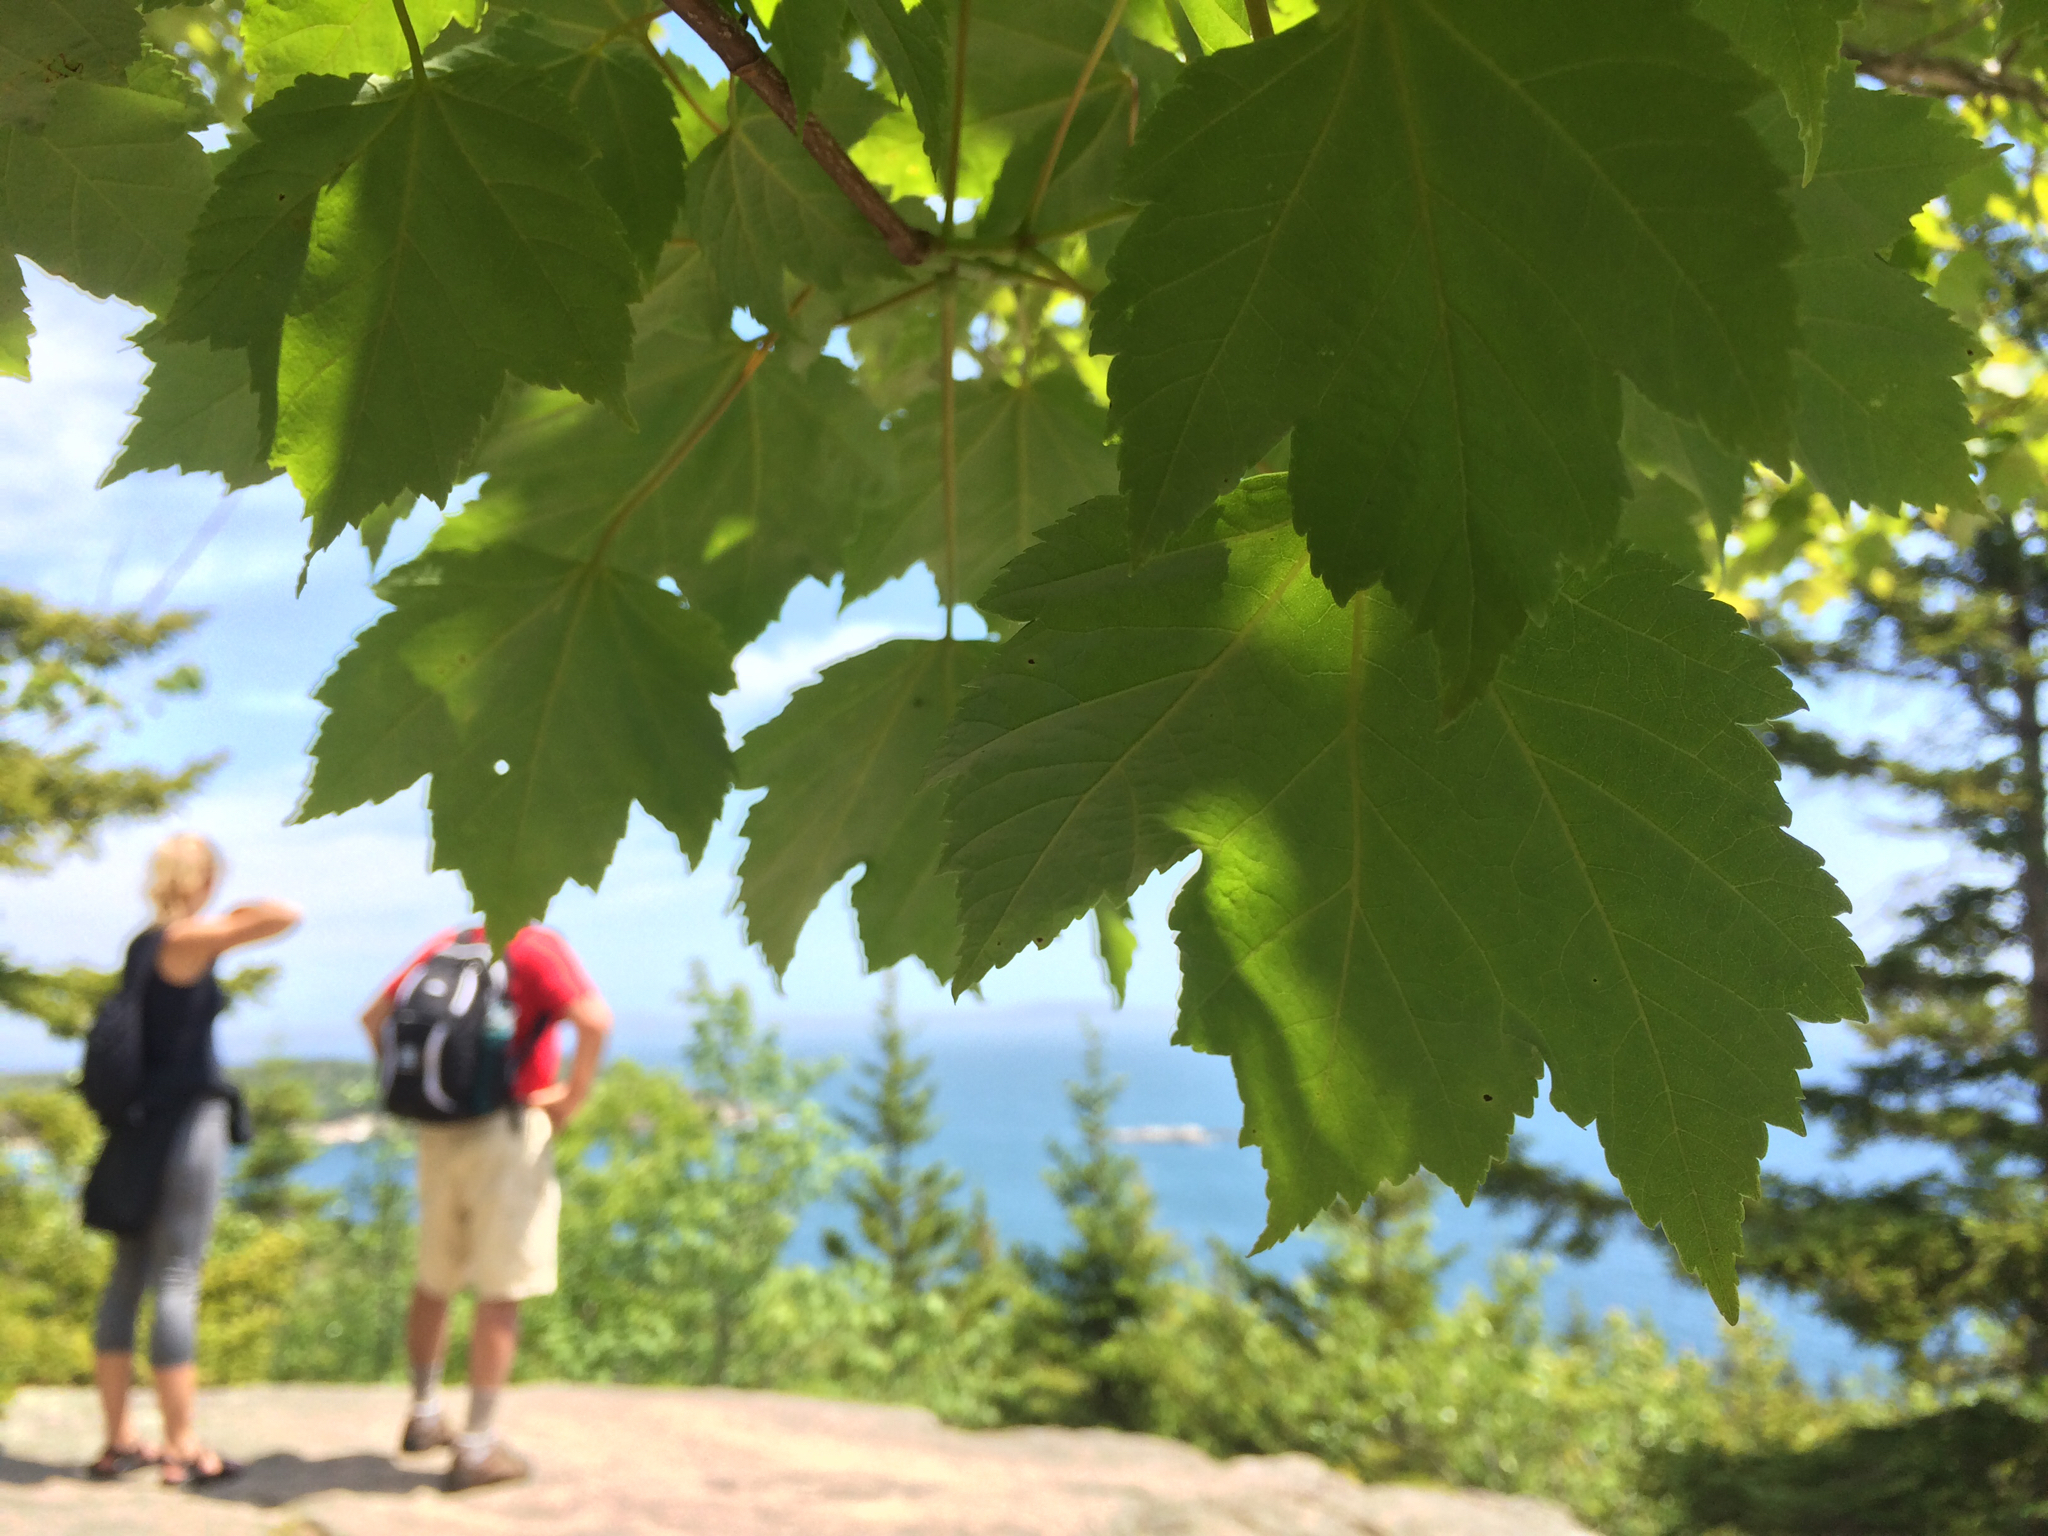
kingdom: Plantae
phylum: Tracheophyta
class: Magnoliopsida
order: Sapindales
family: Sapindaceae
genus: Acer
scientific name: Acer rubrum
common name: Red maple
